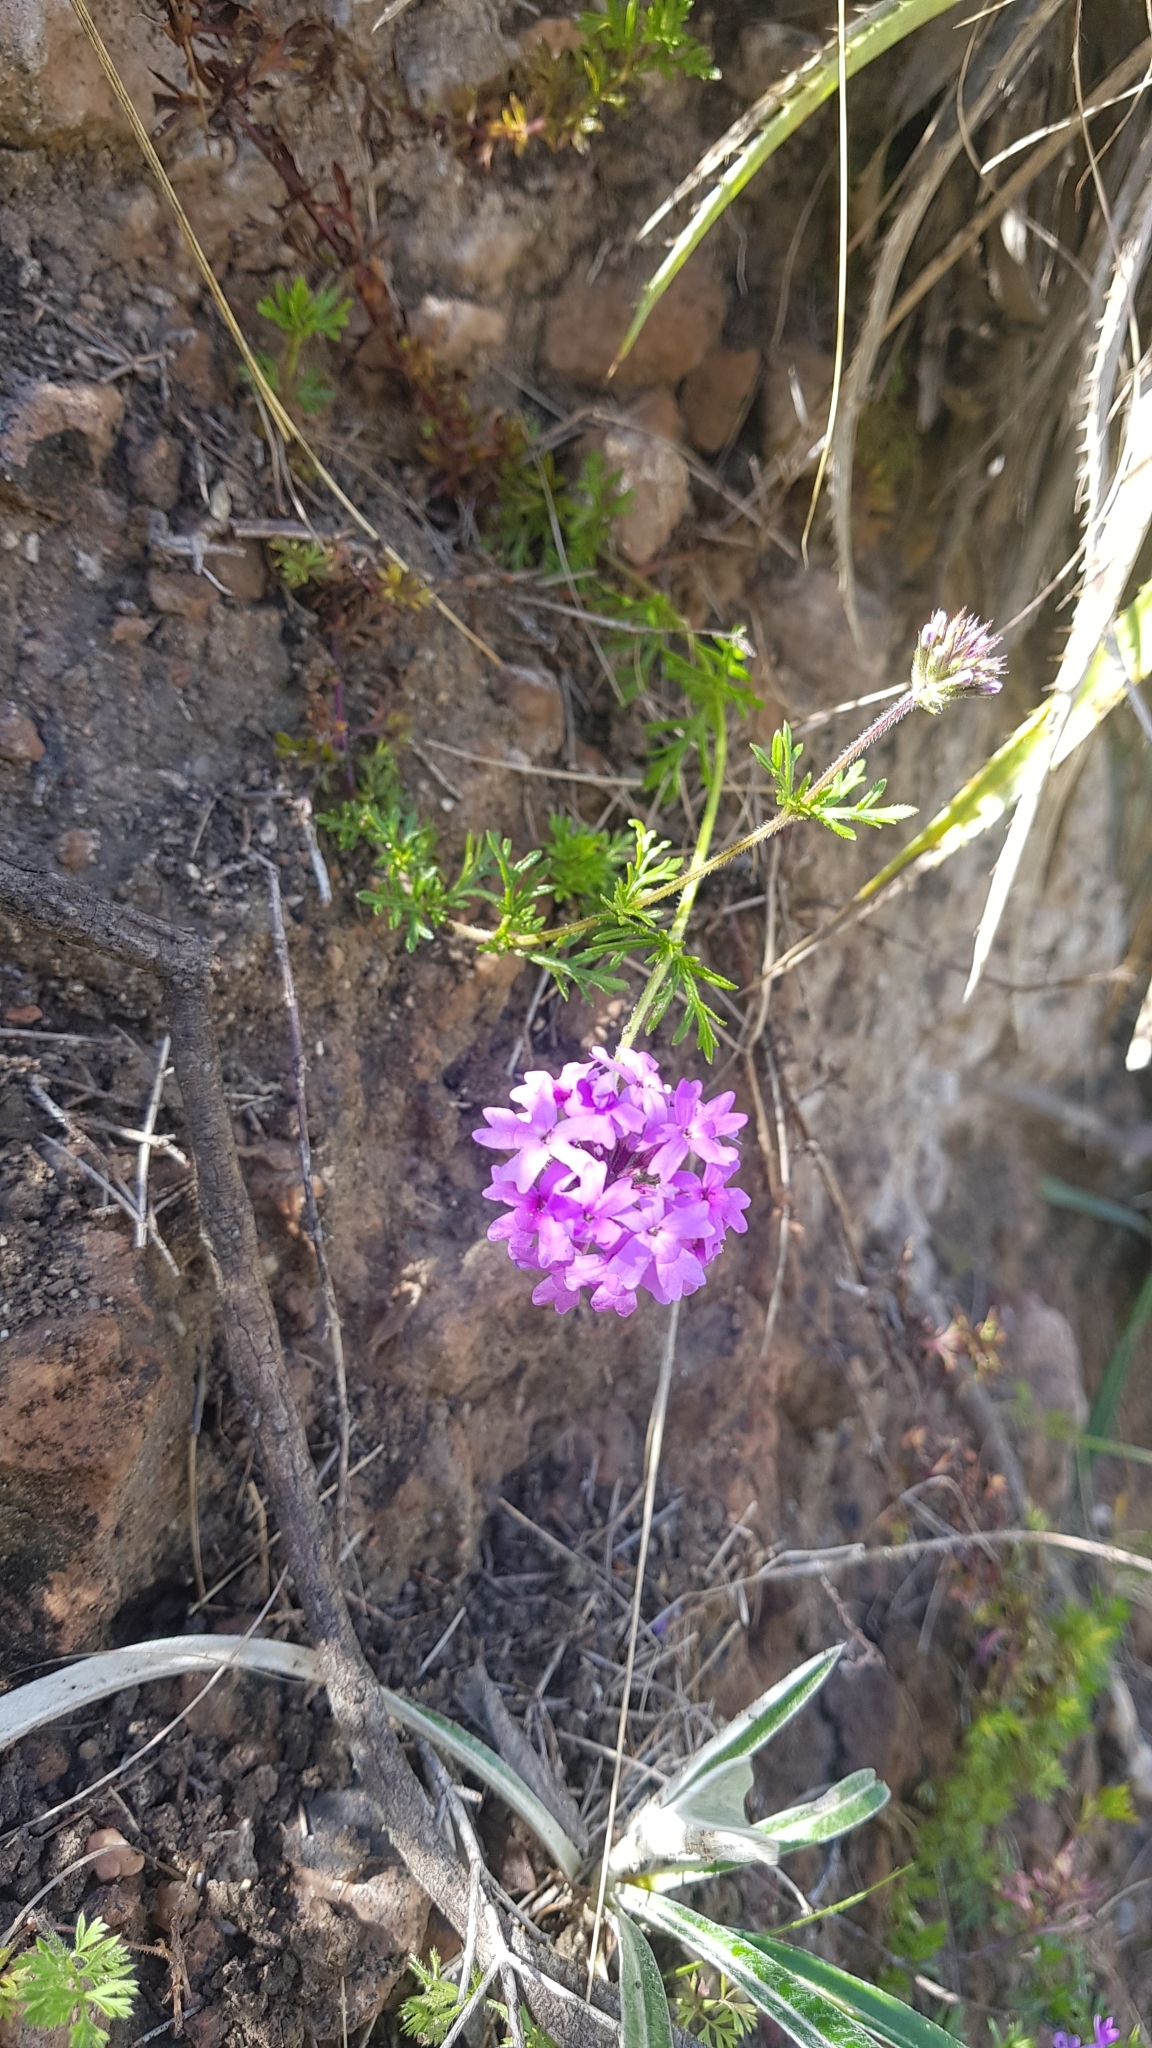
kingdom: Plantae
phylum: Tracheophyta
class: Magnoliopsida
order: Lamiales
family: Verbenaceae
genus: Verbena
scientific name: Verbena selloi
